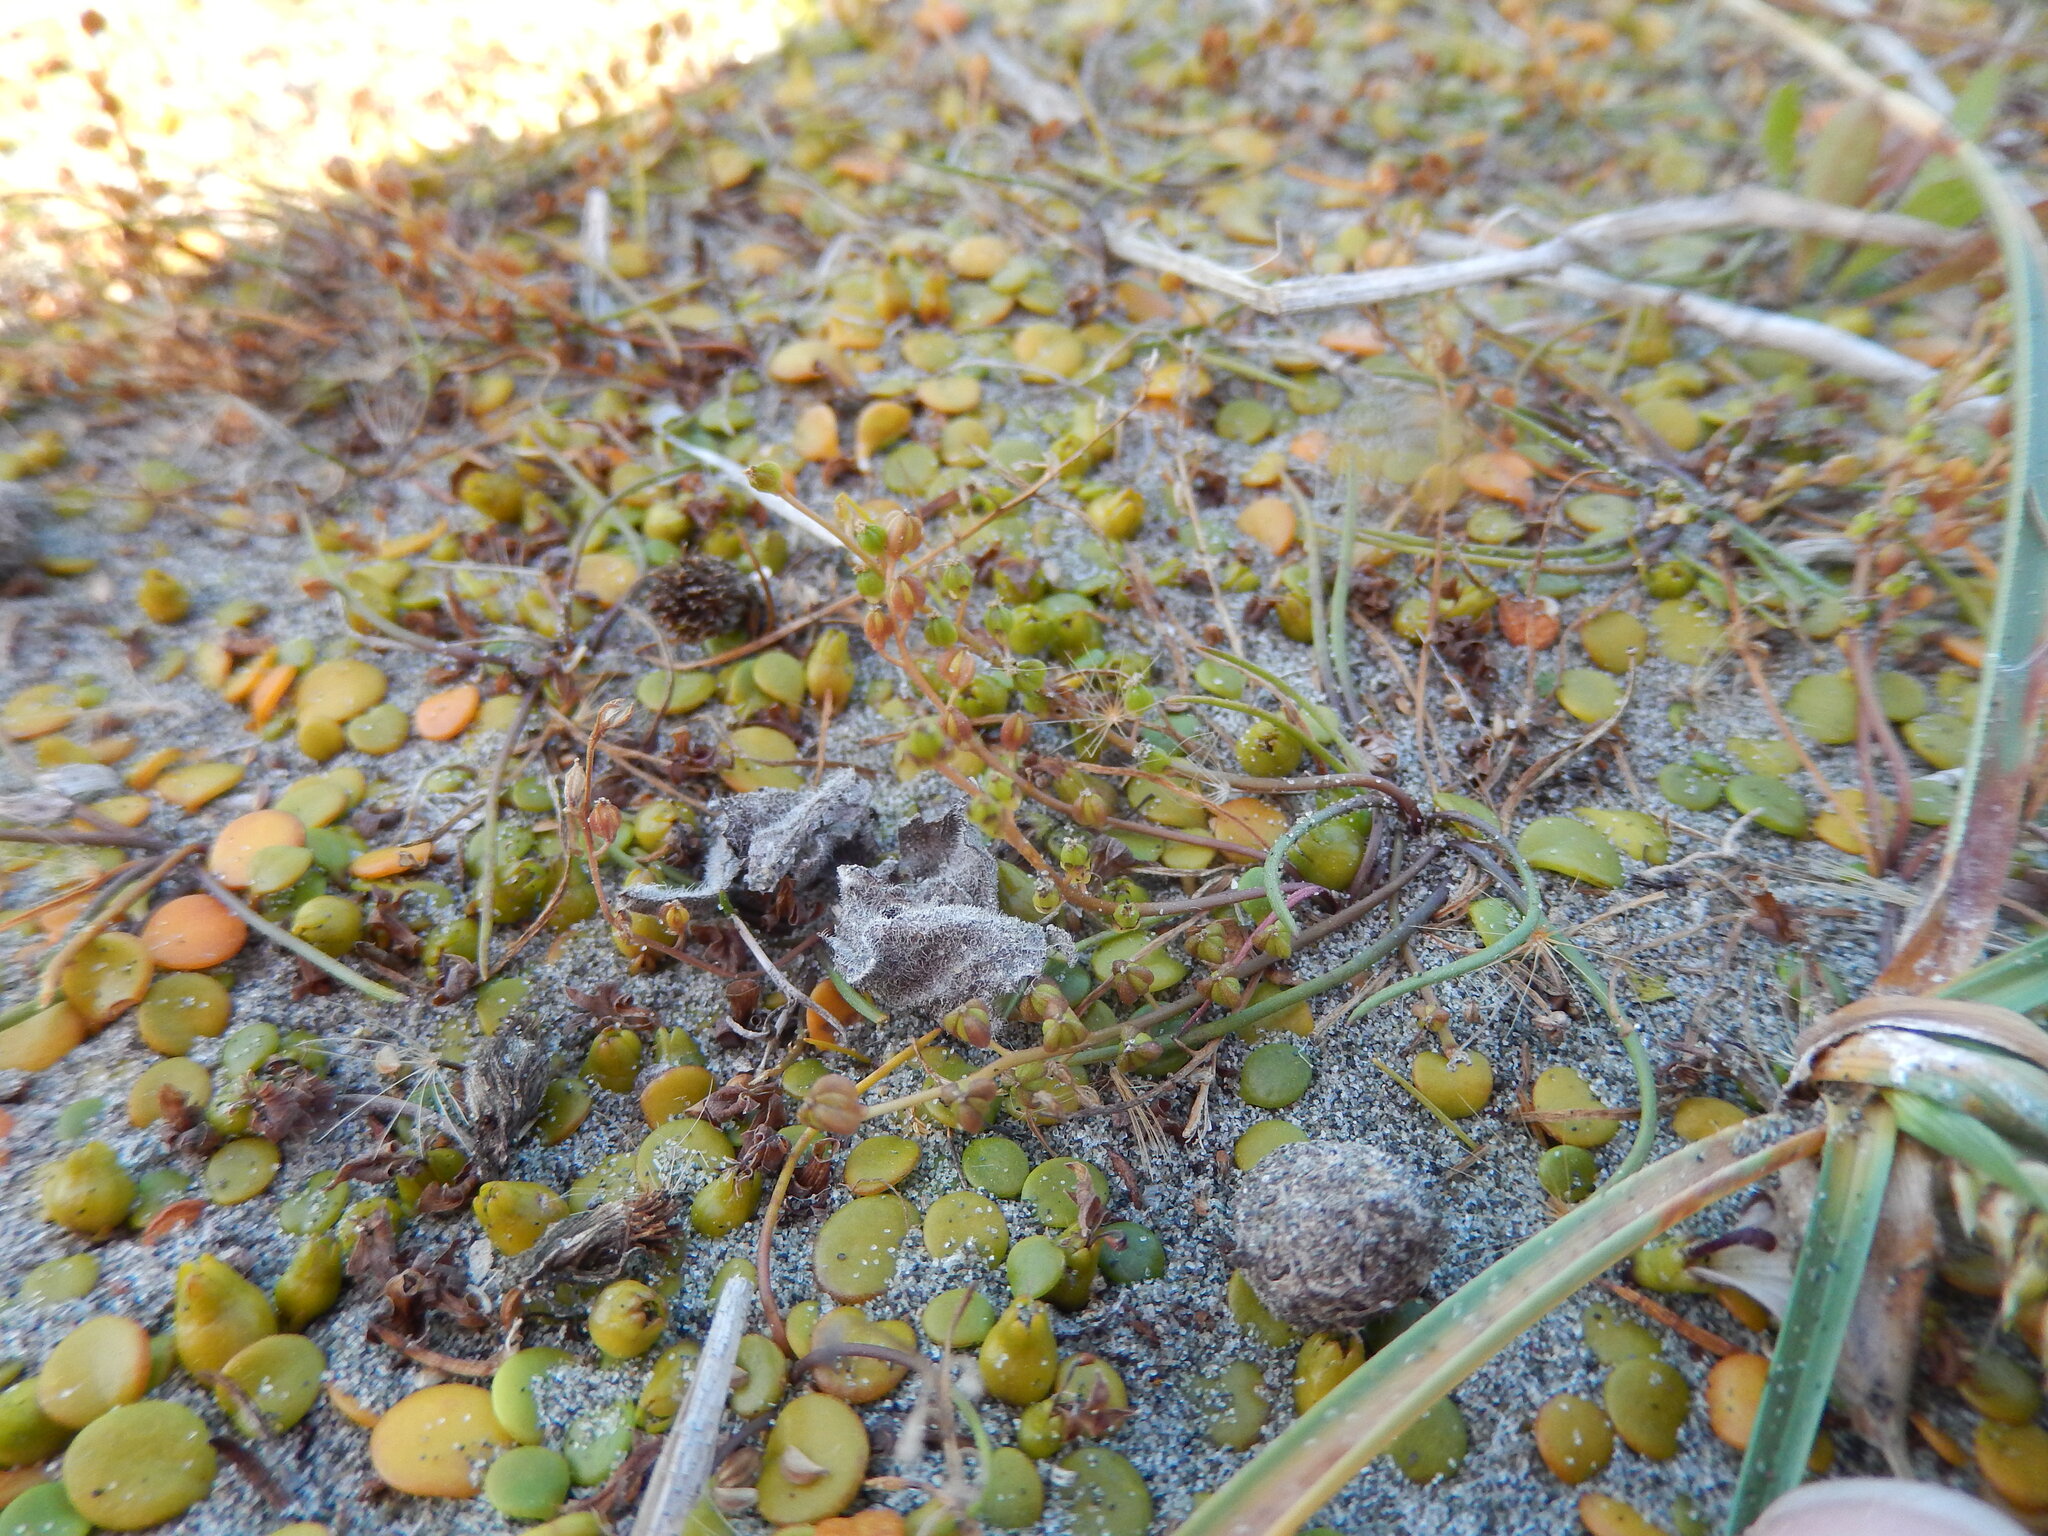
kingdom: Plantae
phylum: Tracheophyta
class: Liliopsida
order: Alismatales
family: Juncaginaceae
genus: Triglochin
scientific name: Triglochin striata
